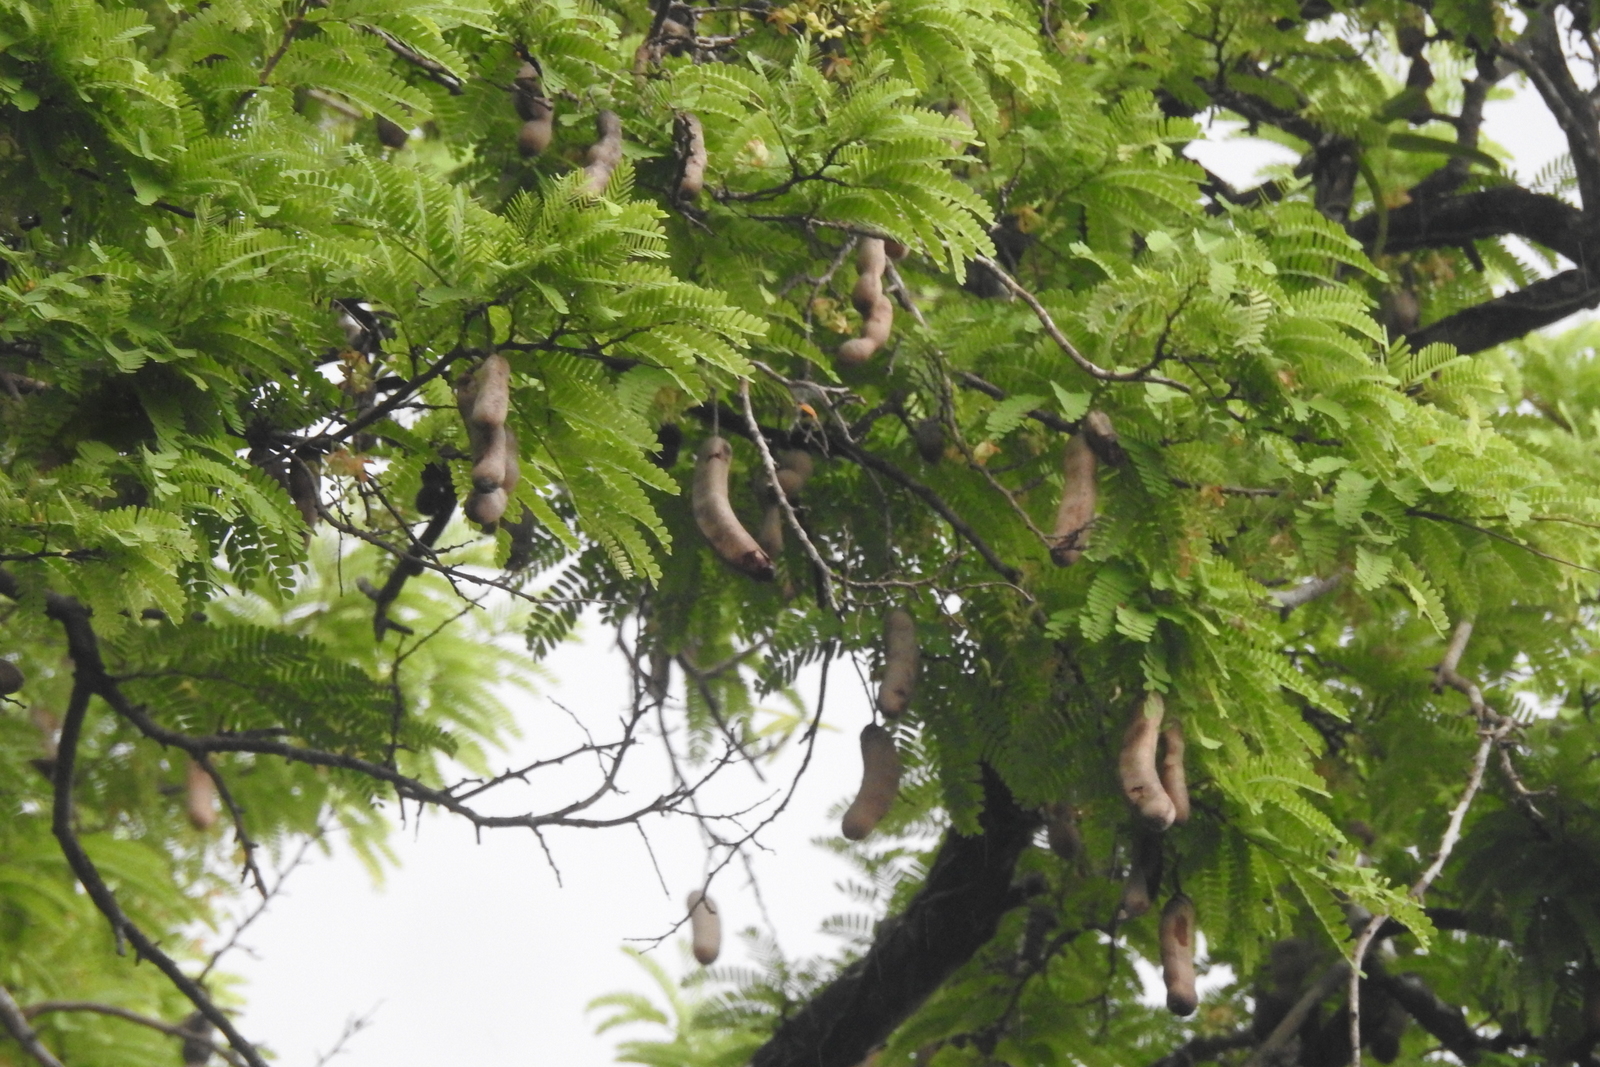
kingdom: Plantae
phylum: Tracheophyta
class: Magnoliopsida
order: Fabales
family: Fabaceae
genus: Tamarindus
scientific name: Tamarindus indica
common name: Tamarind
